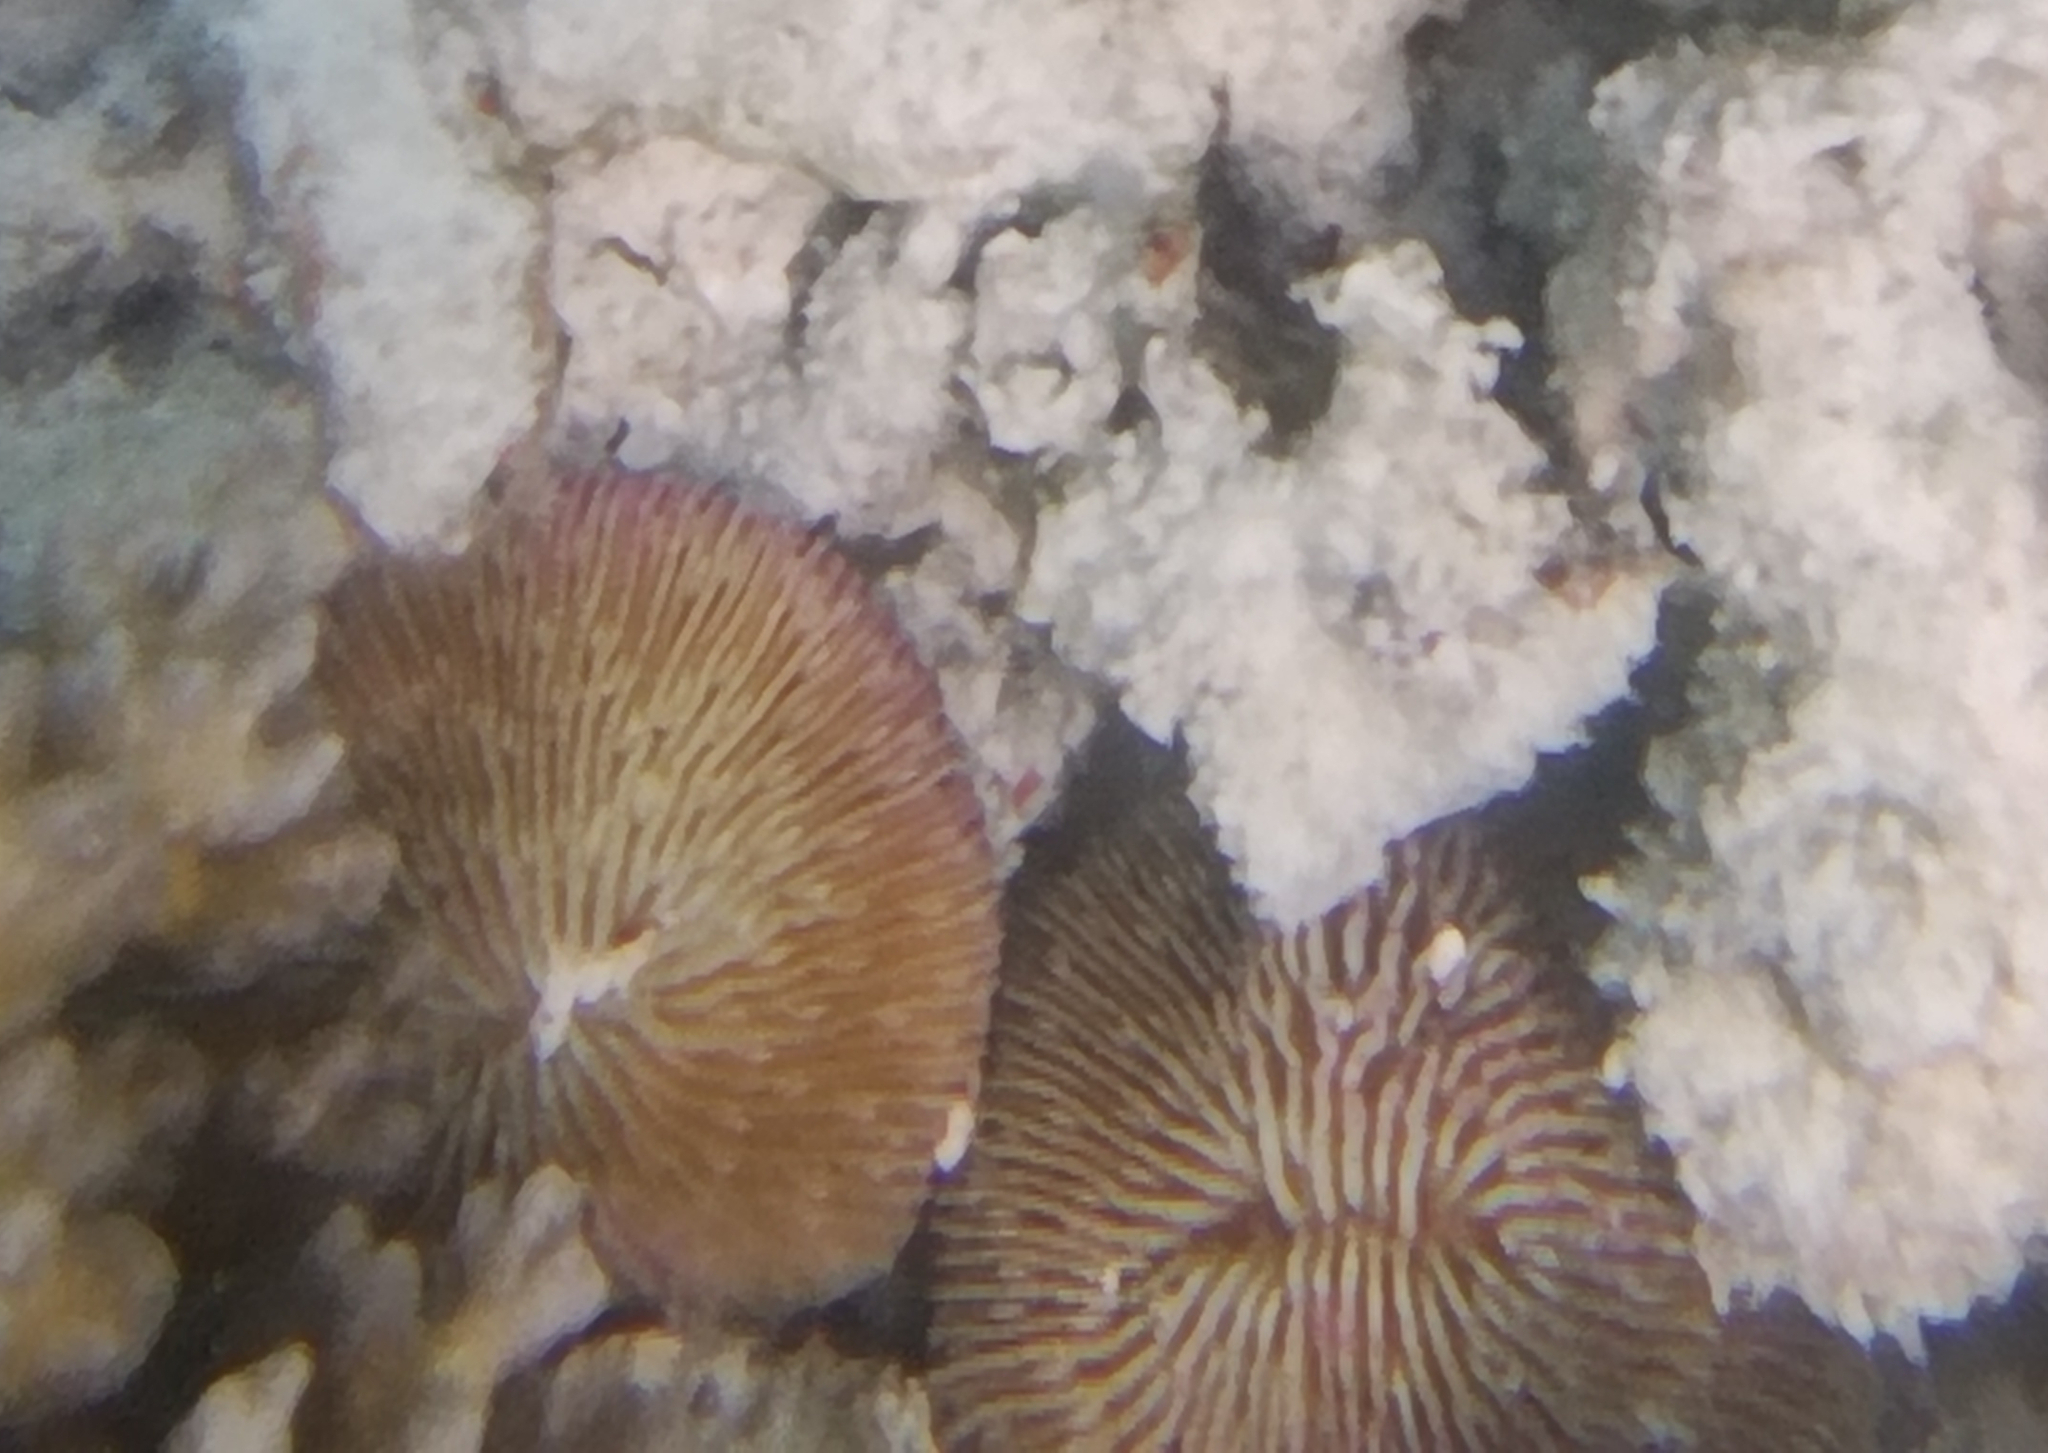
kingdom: Animalia
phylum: Cnidaria
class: Anthozoa
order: Scleractinia
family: Fungiidae
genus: Fungia
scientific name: Fungia fungites
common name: Mushroom coral
